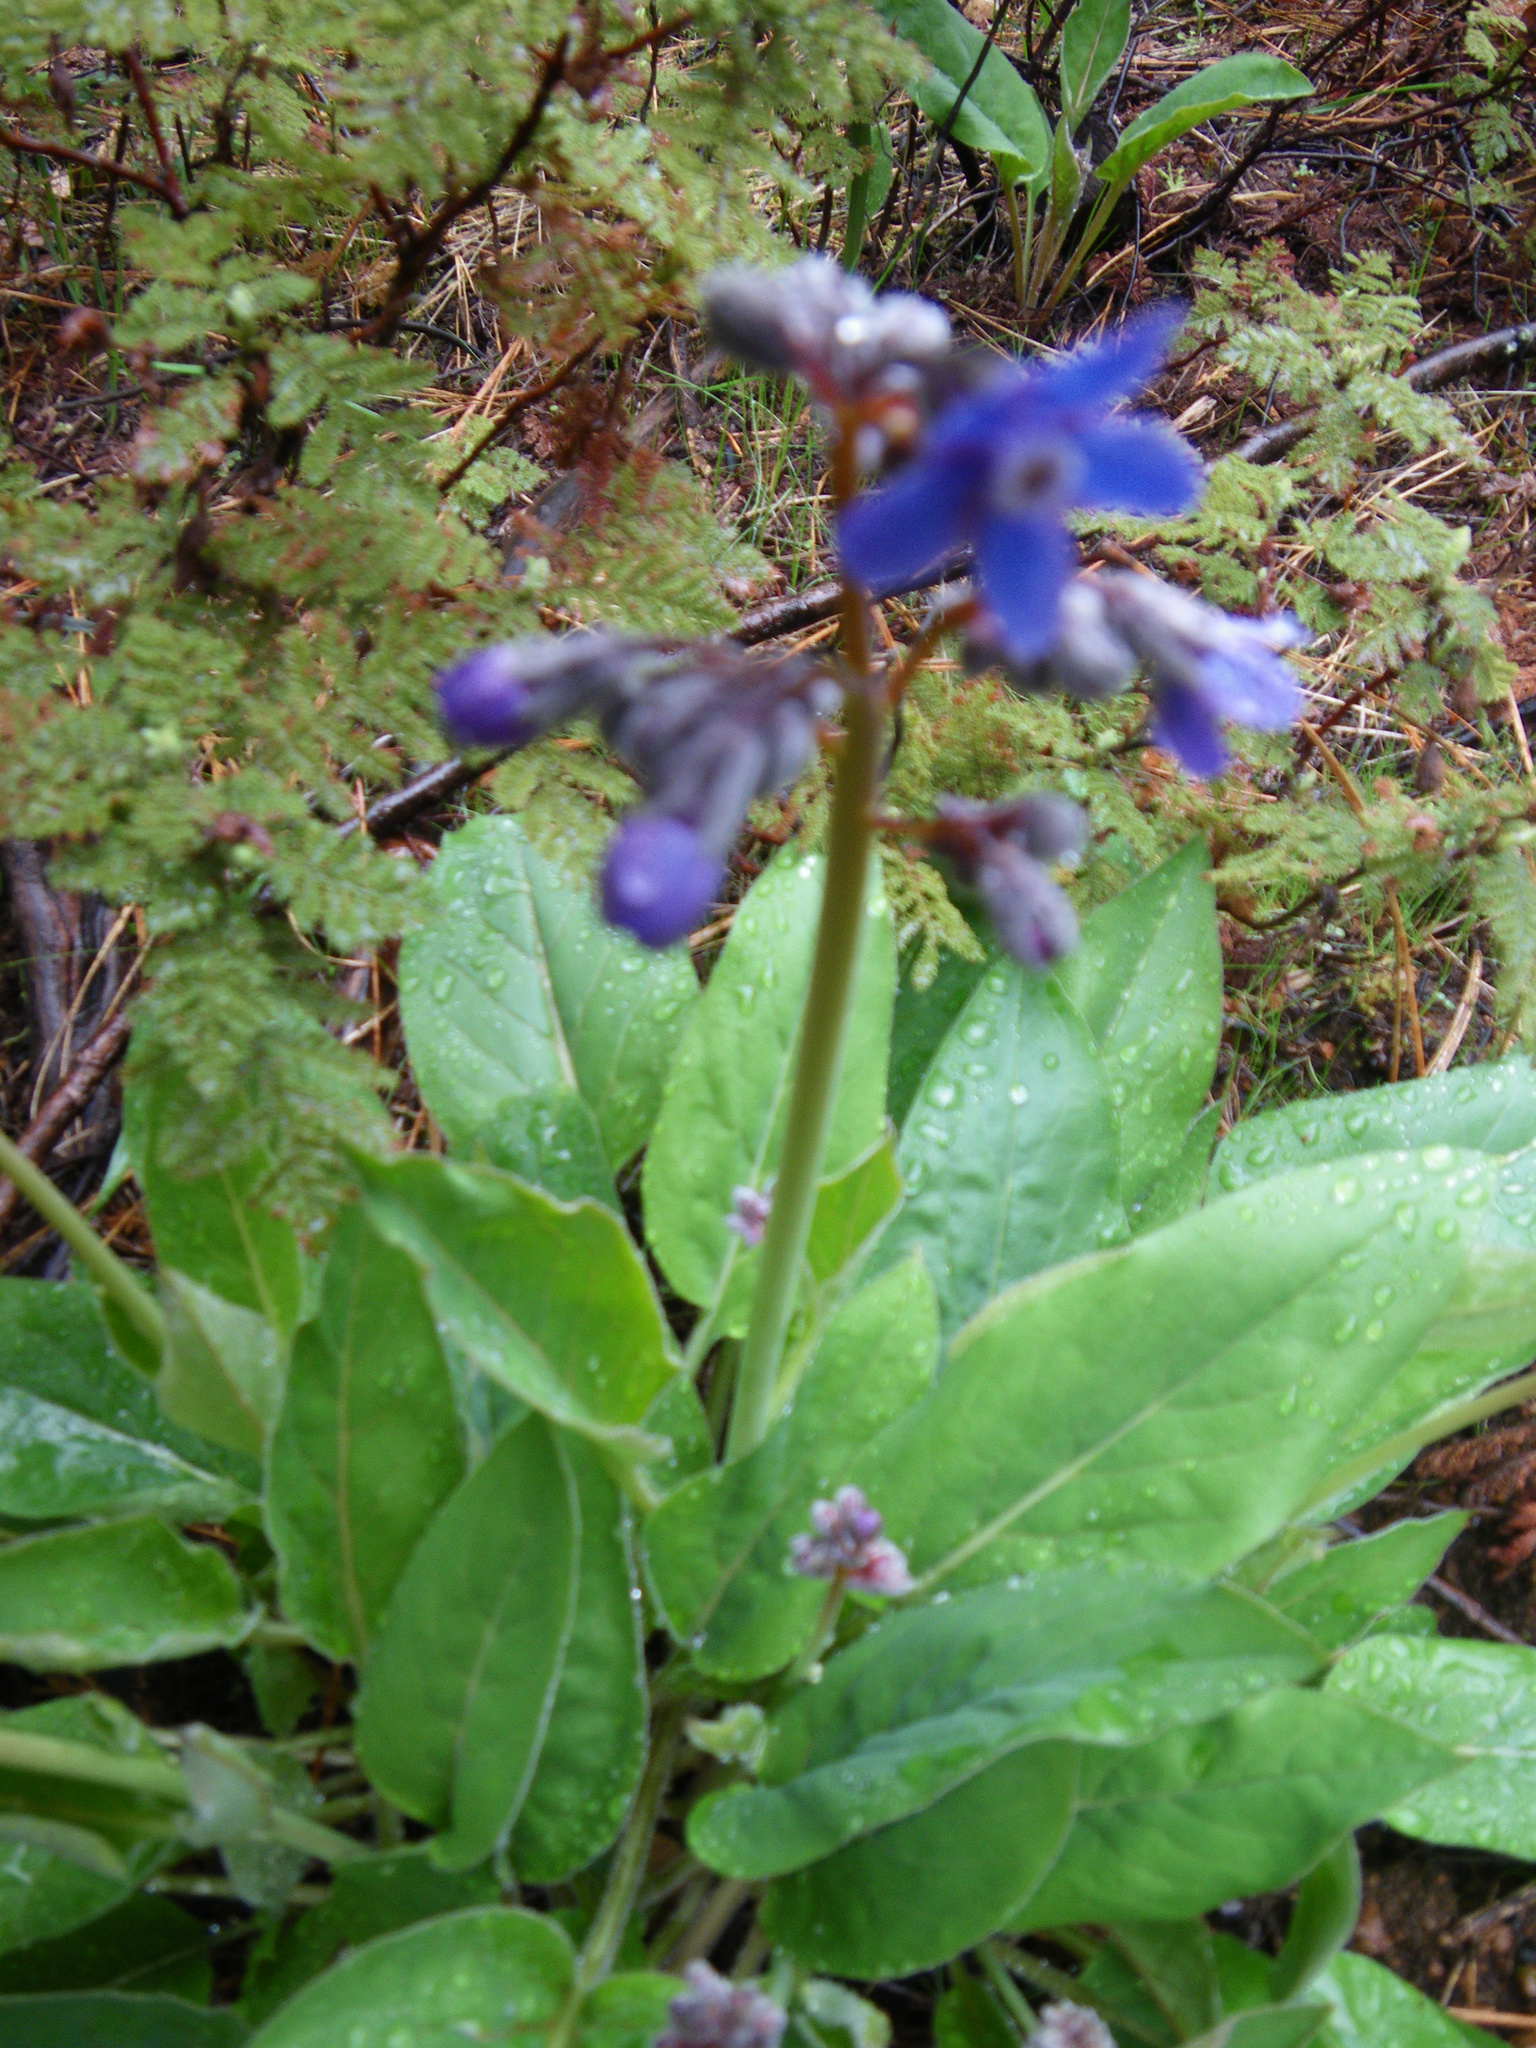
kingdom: Plantae
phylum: Tracheophyta
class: Magnoliopsida
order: Boraginales
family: Boraginaceae
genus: Adelinia
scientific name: Adelinia grande
